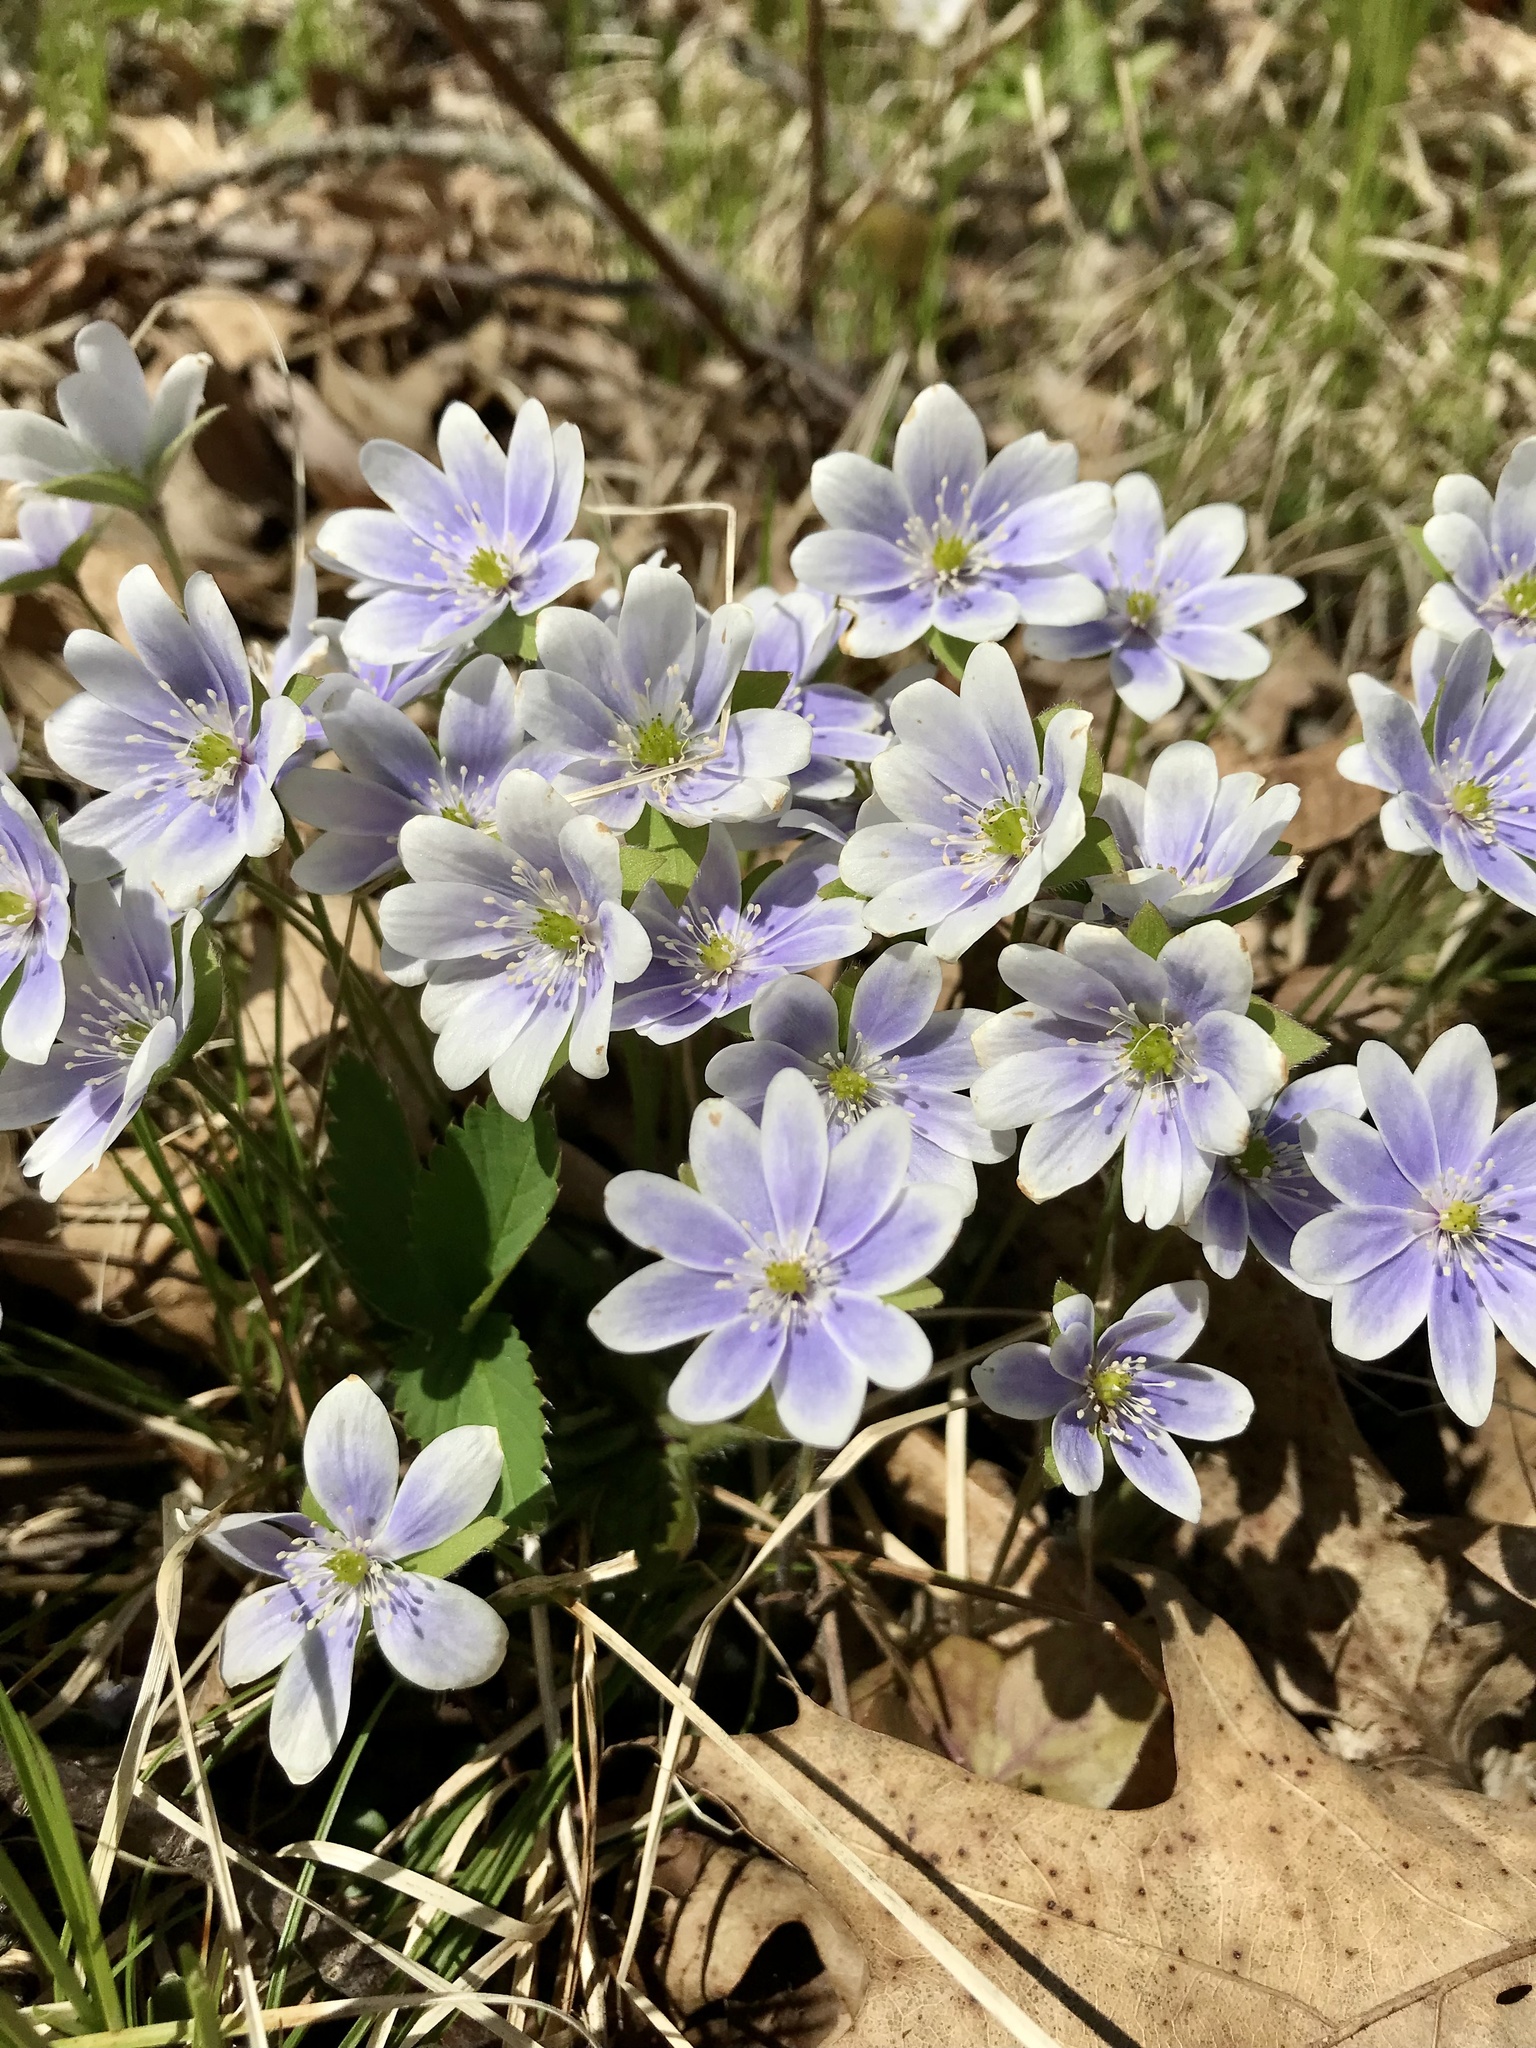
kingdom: Plantae
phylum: Tracheophyta
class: Magnoliopsida
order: Ranunculales
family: Ranunculaceae
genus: Hepatica
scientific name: Hepatica acutiloba
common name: Sharp-lobed hepatica
